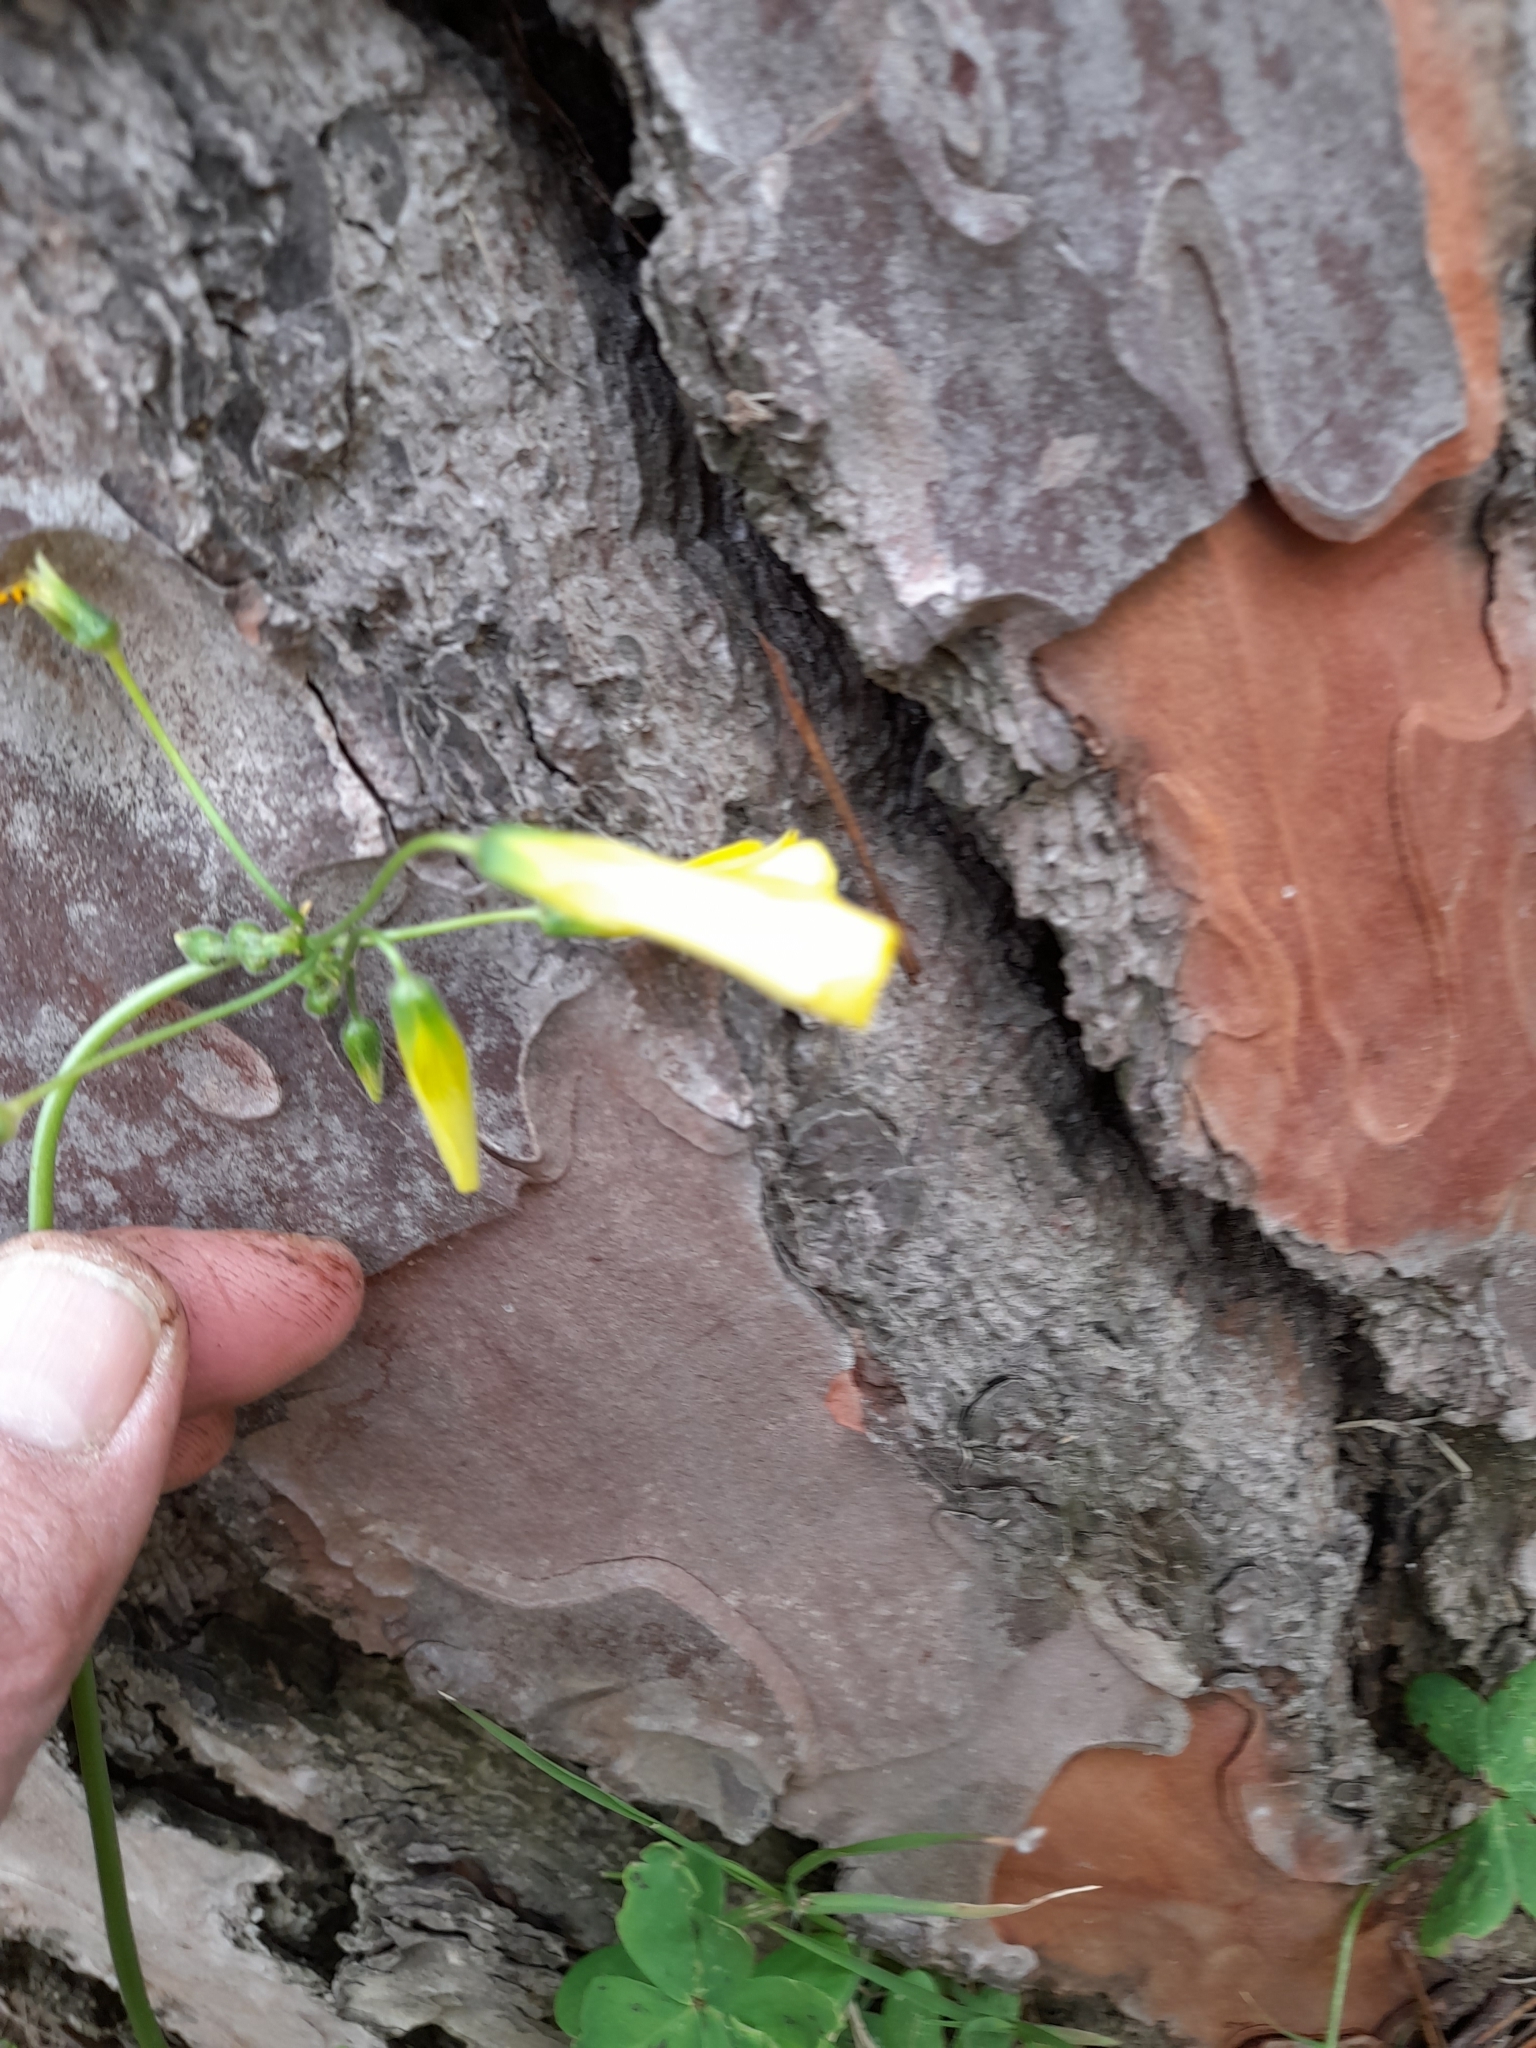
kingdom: Plantae
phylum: Tracheophyta
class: Magnoliopsida
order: Oxalidales
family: Oxalidaceae
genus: Oxalis
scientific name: Oxalis pes-caprae
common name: Bermuda-buttercup
